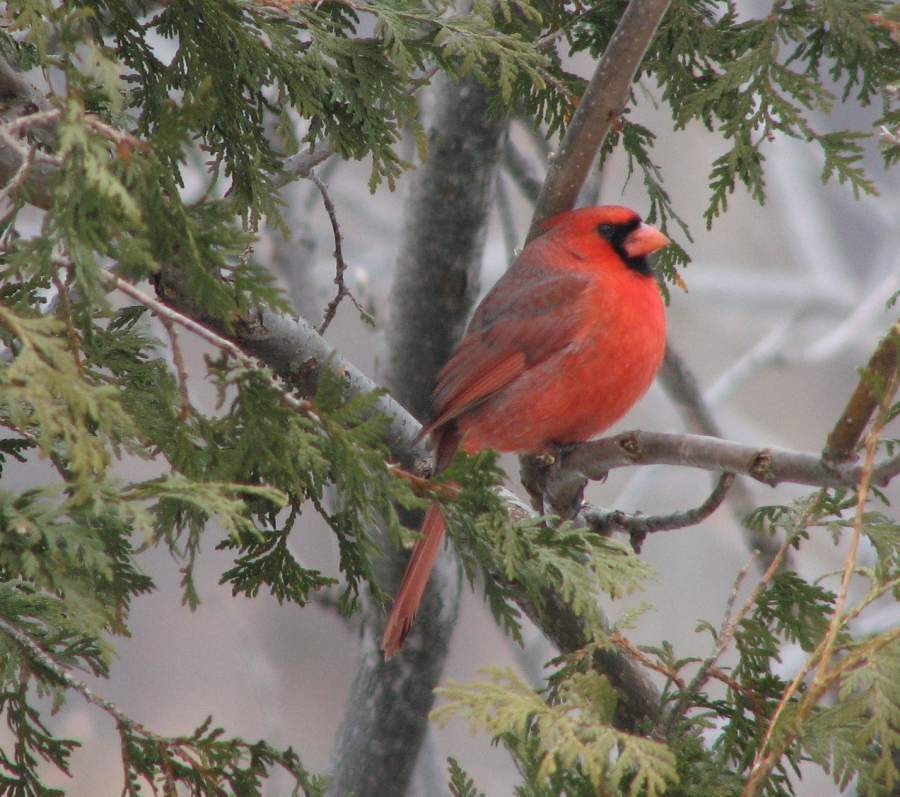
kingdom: Animalia
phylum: Chordata
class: Aves
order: Passeriformes
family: Cardinalidae
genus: Cardinalis
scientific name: Cardinalis cardinalis
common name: Northern cardinal
